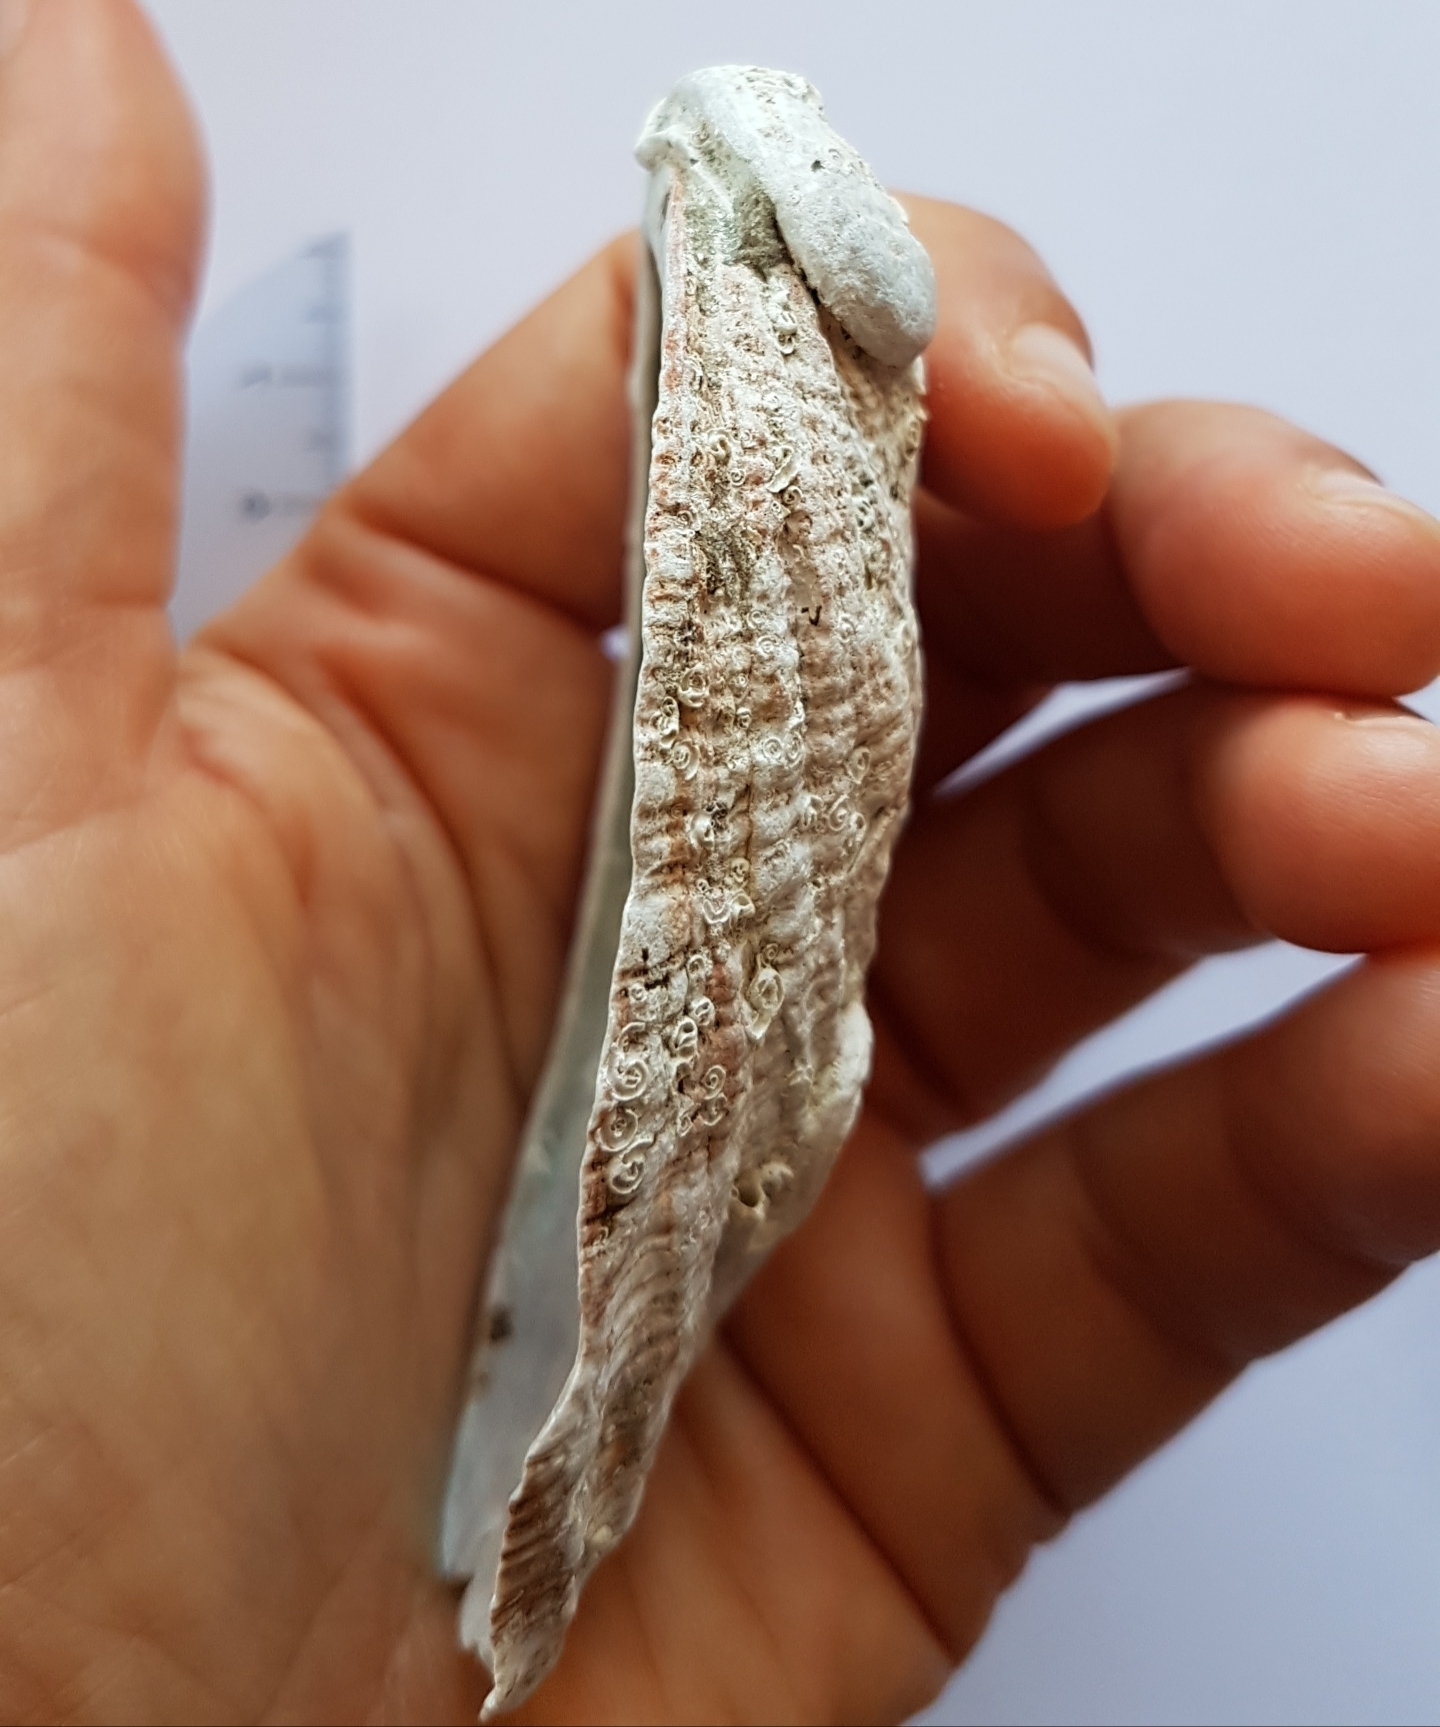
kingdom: Animalia
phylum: Mollusca
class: Gastropoda
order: Lepetellida
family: Haliotidae
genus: Haliotis
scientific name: Haliotis tuberculata
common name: Green ormer
